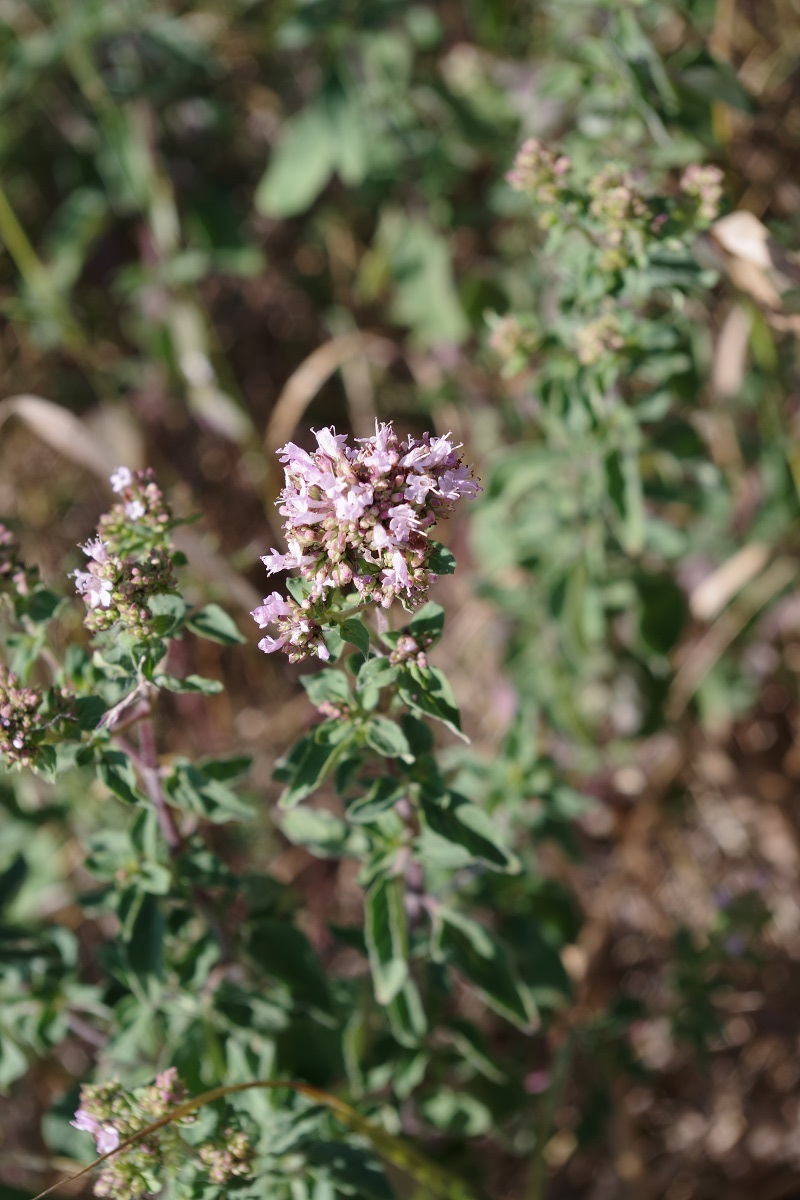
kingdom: Plantae
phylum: Tracheophyta
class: Magnoliopsida
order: Lamiales
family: Lamiaceae
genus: Origanum
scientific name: Origanum vulgare
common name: Wild marjoram
